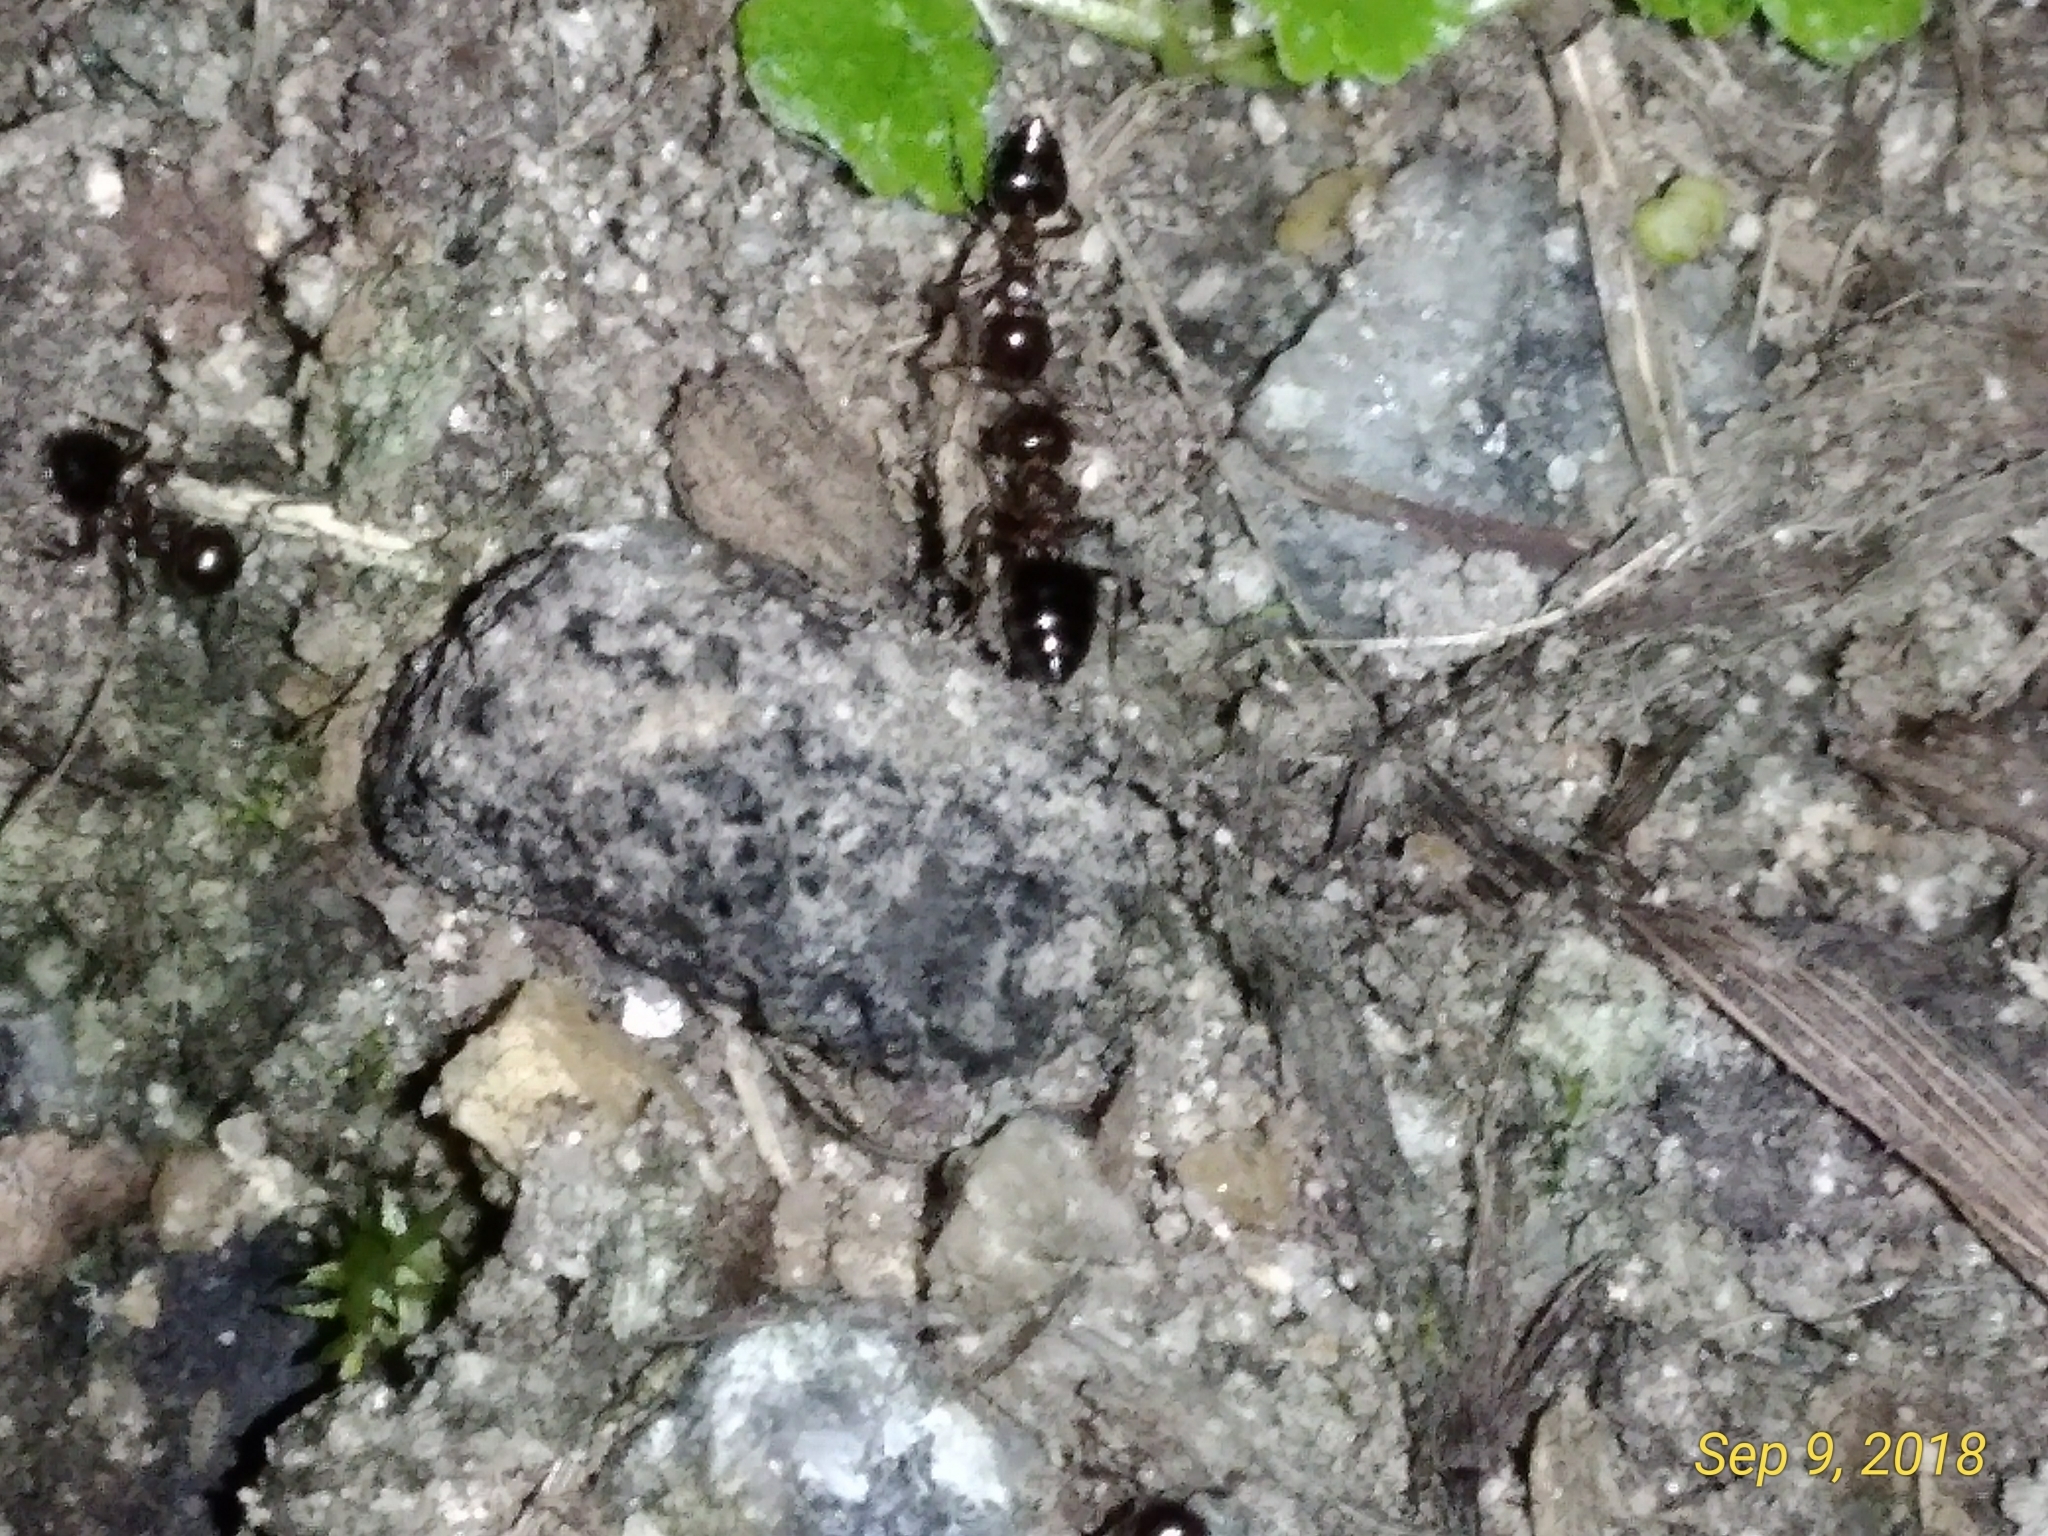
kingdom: Animalia
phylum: Arthropoda
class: Insecta
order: Hymenoptera
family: Formicidae
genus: Crematogaster
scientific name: Crematogaster ashmeadi
